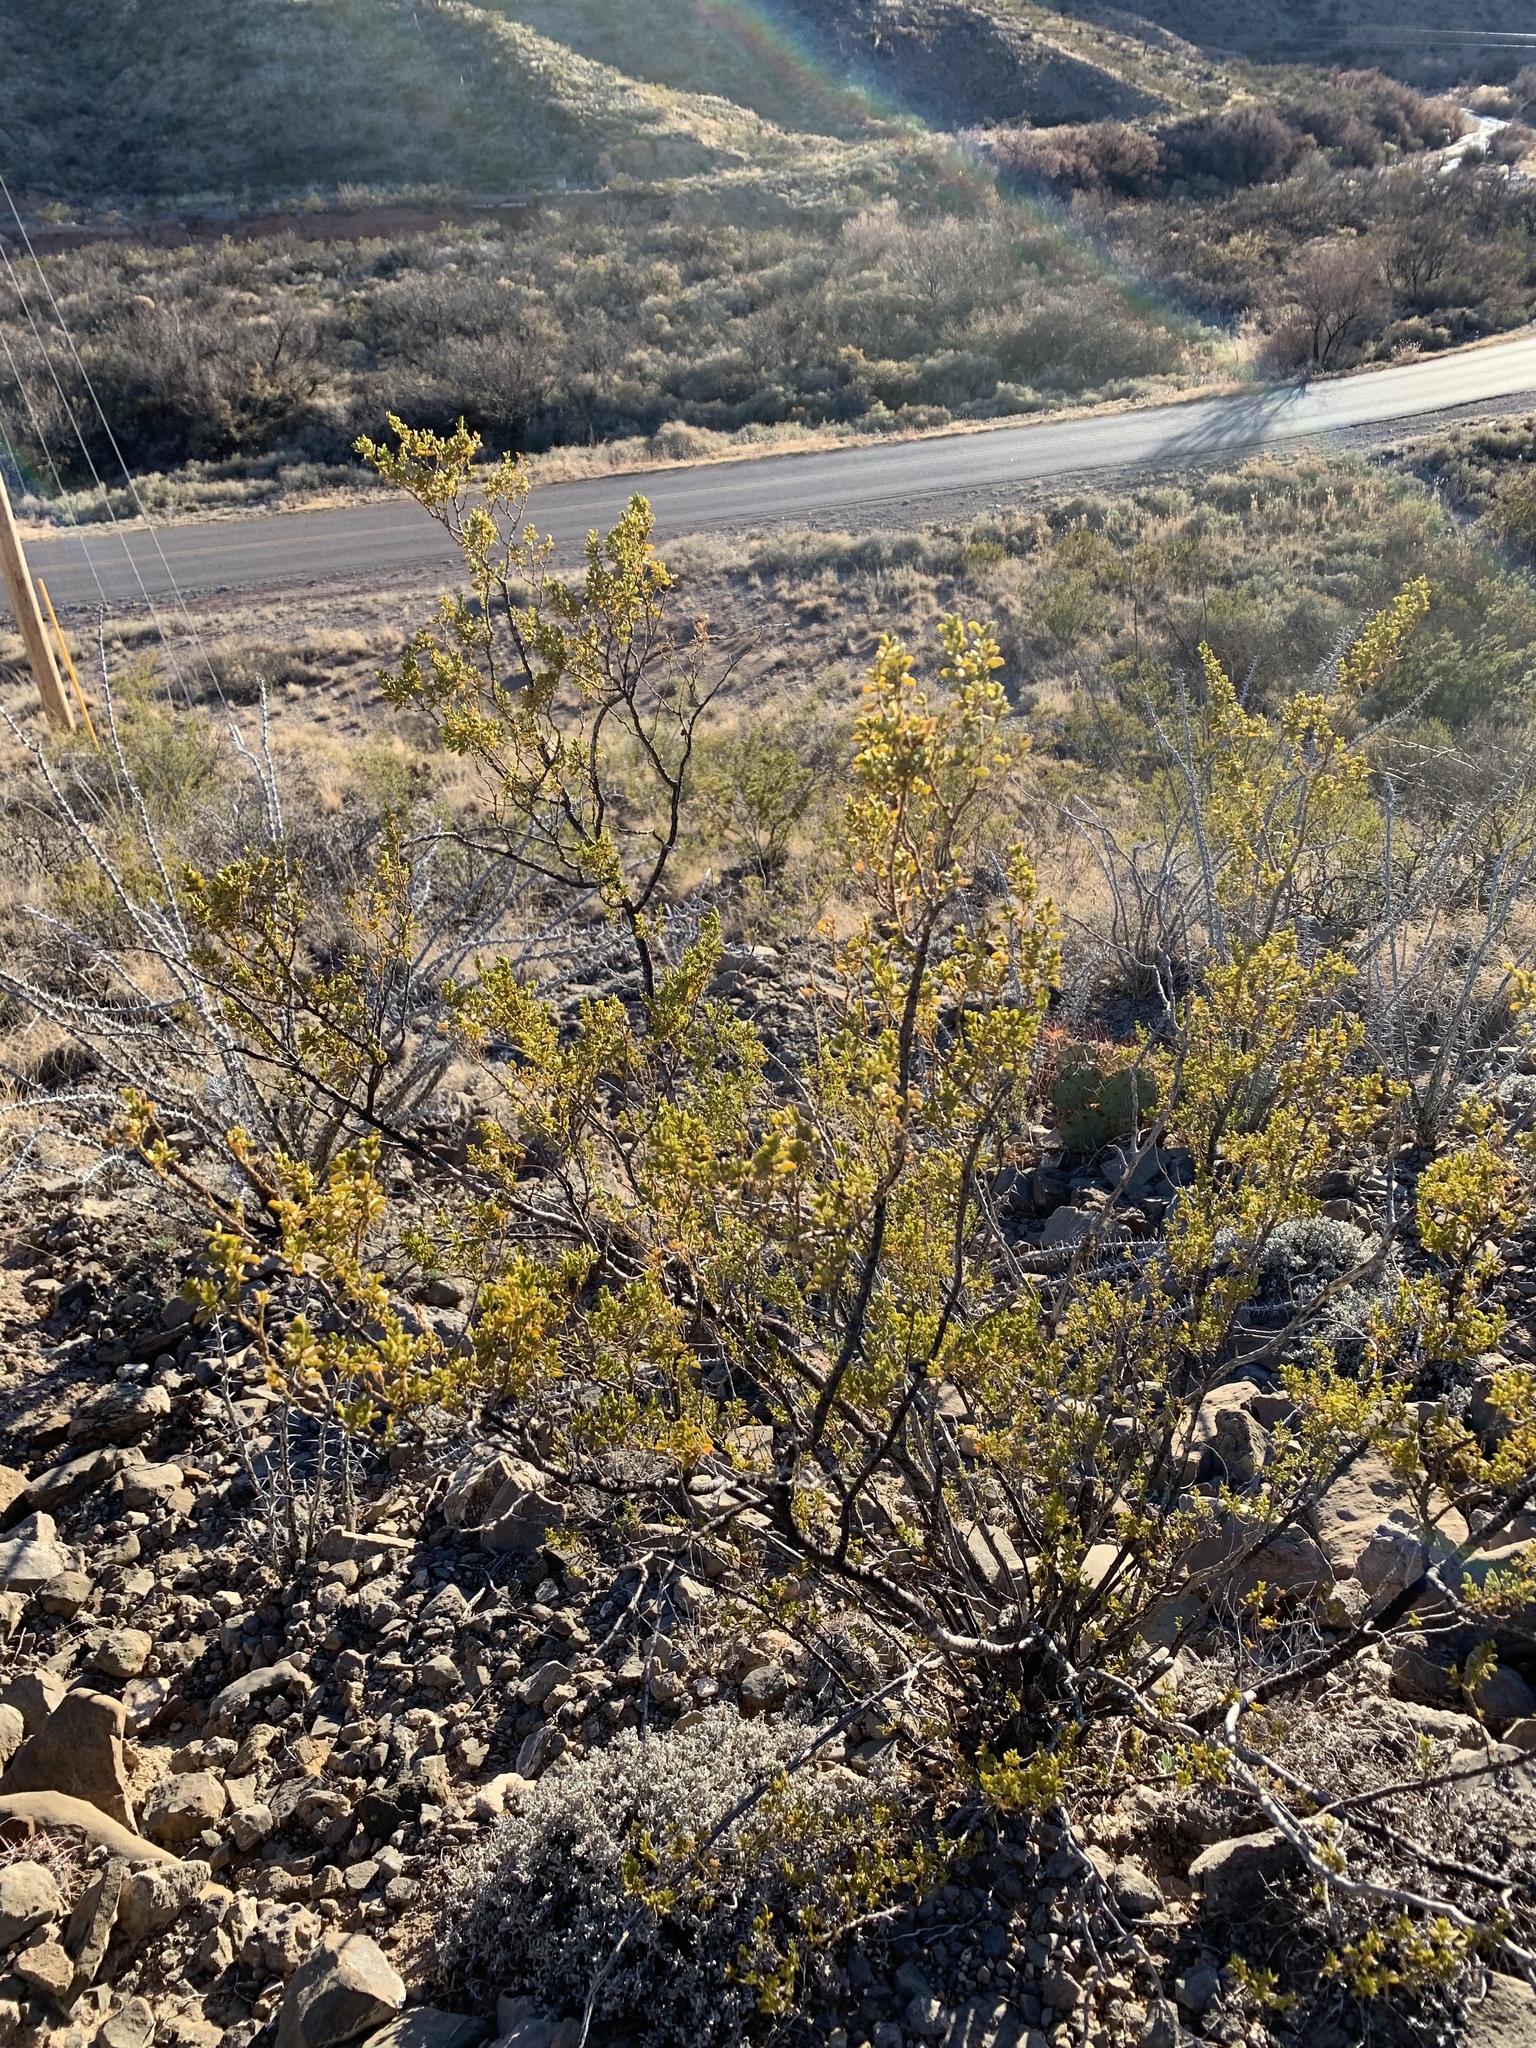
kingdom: Plantae
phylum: Tracheophyta
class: Magnoliopsida
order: Zygophyllales
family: Zygophyllaceae
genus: Larrea
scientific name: Larrea tridentata
